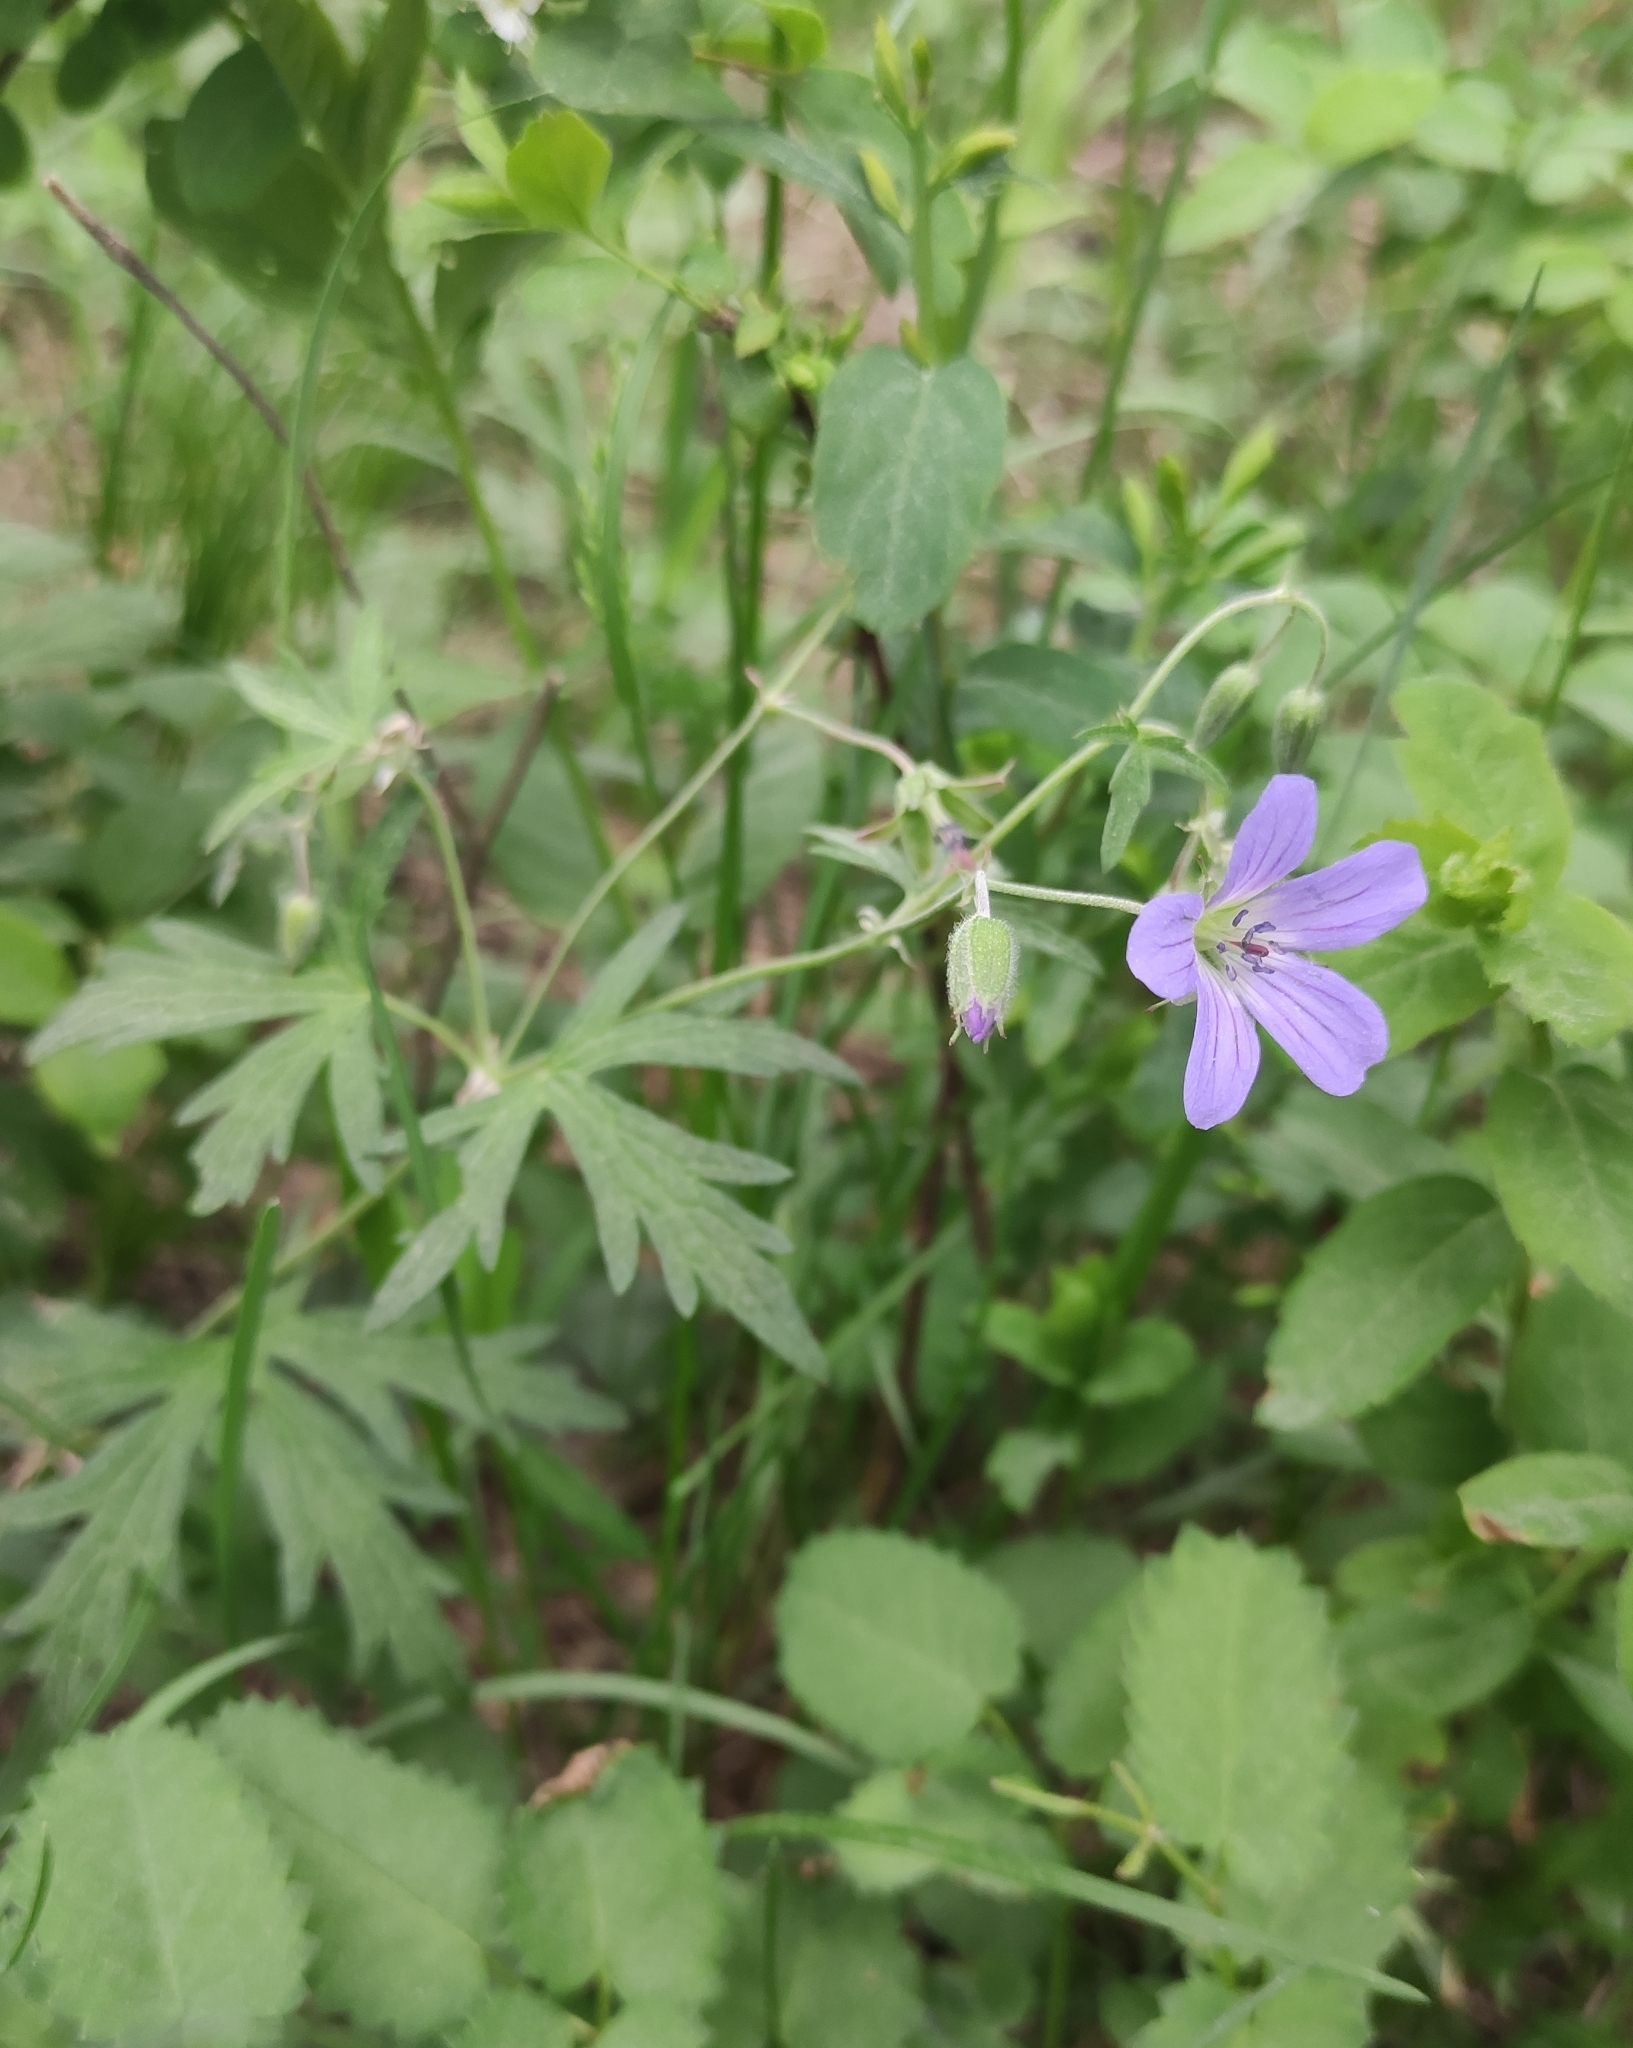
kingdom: Plantae
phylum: Tracheophyta
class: Magnoliopsida
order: Geraniales
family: Geraniaceae
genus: Geranium
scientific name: Geranium pseudosibiricum
